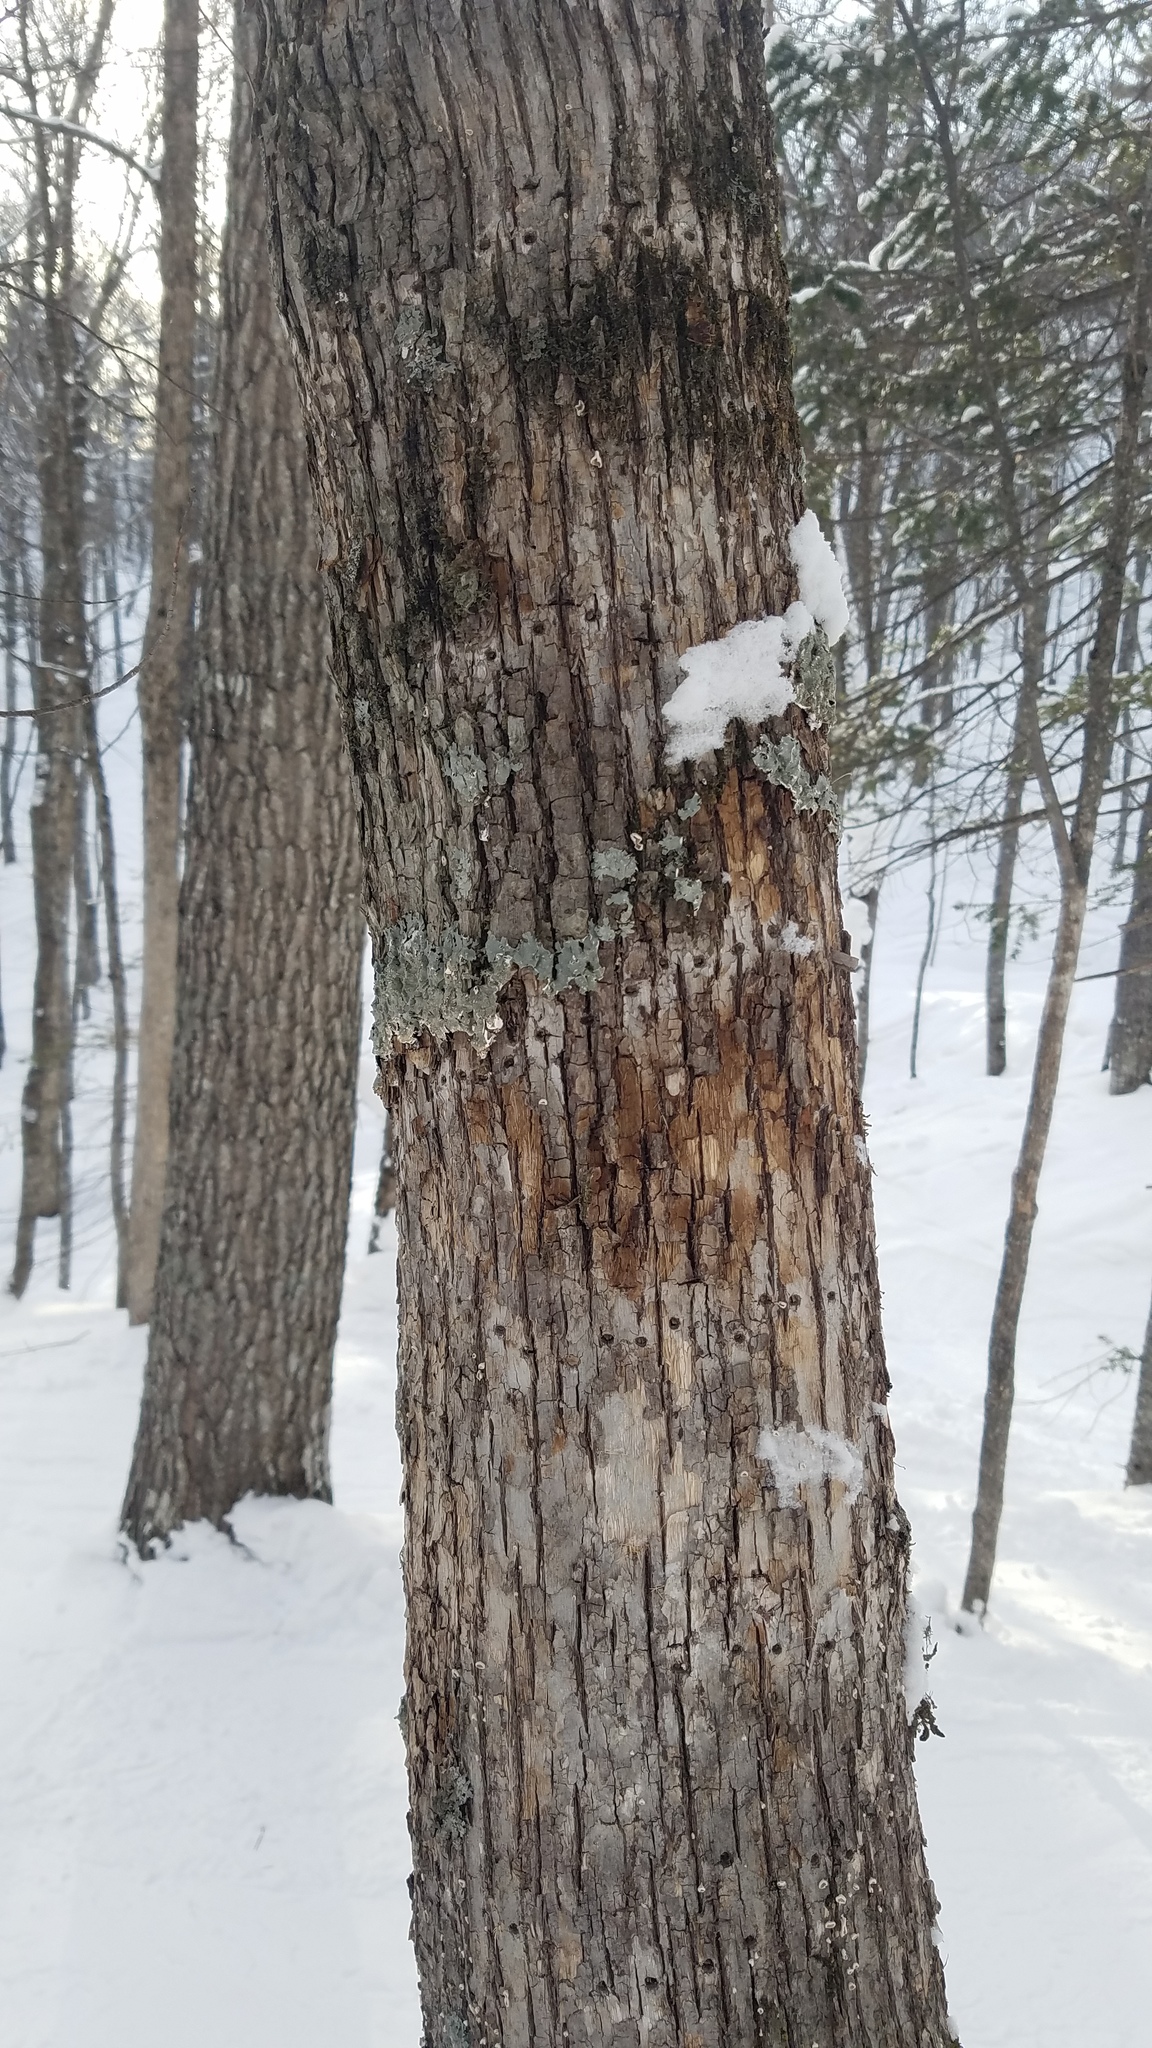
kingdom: Animalia
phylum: Chordata
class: Aves
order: Piciformes
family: Picidae
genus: Sphyrapicus
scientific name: Sphyrapicus varius
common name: Yellow-bellied sapsucker
